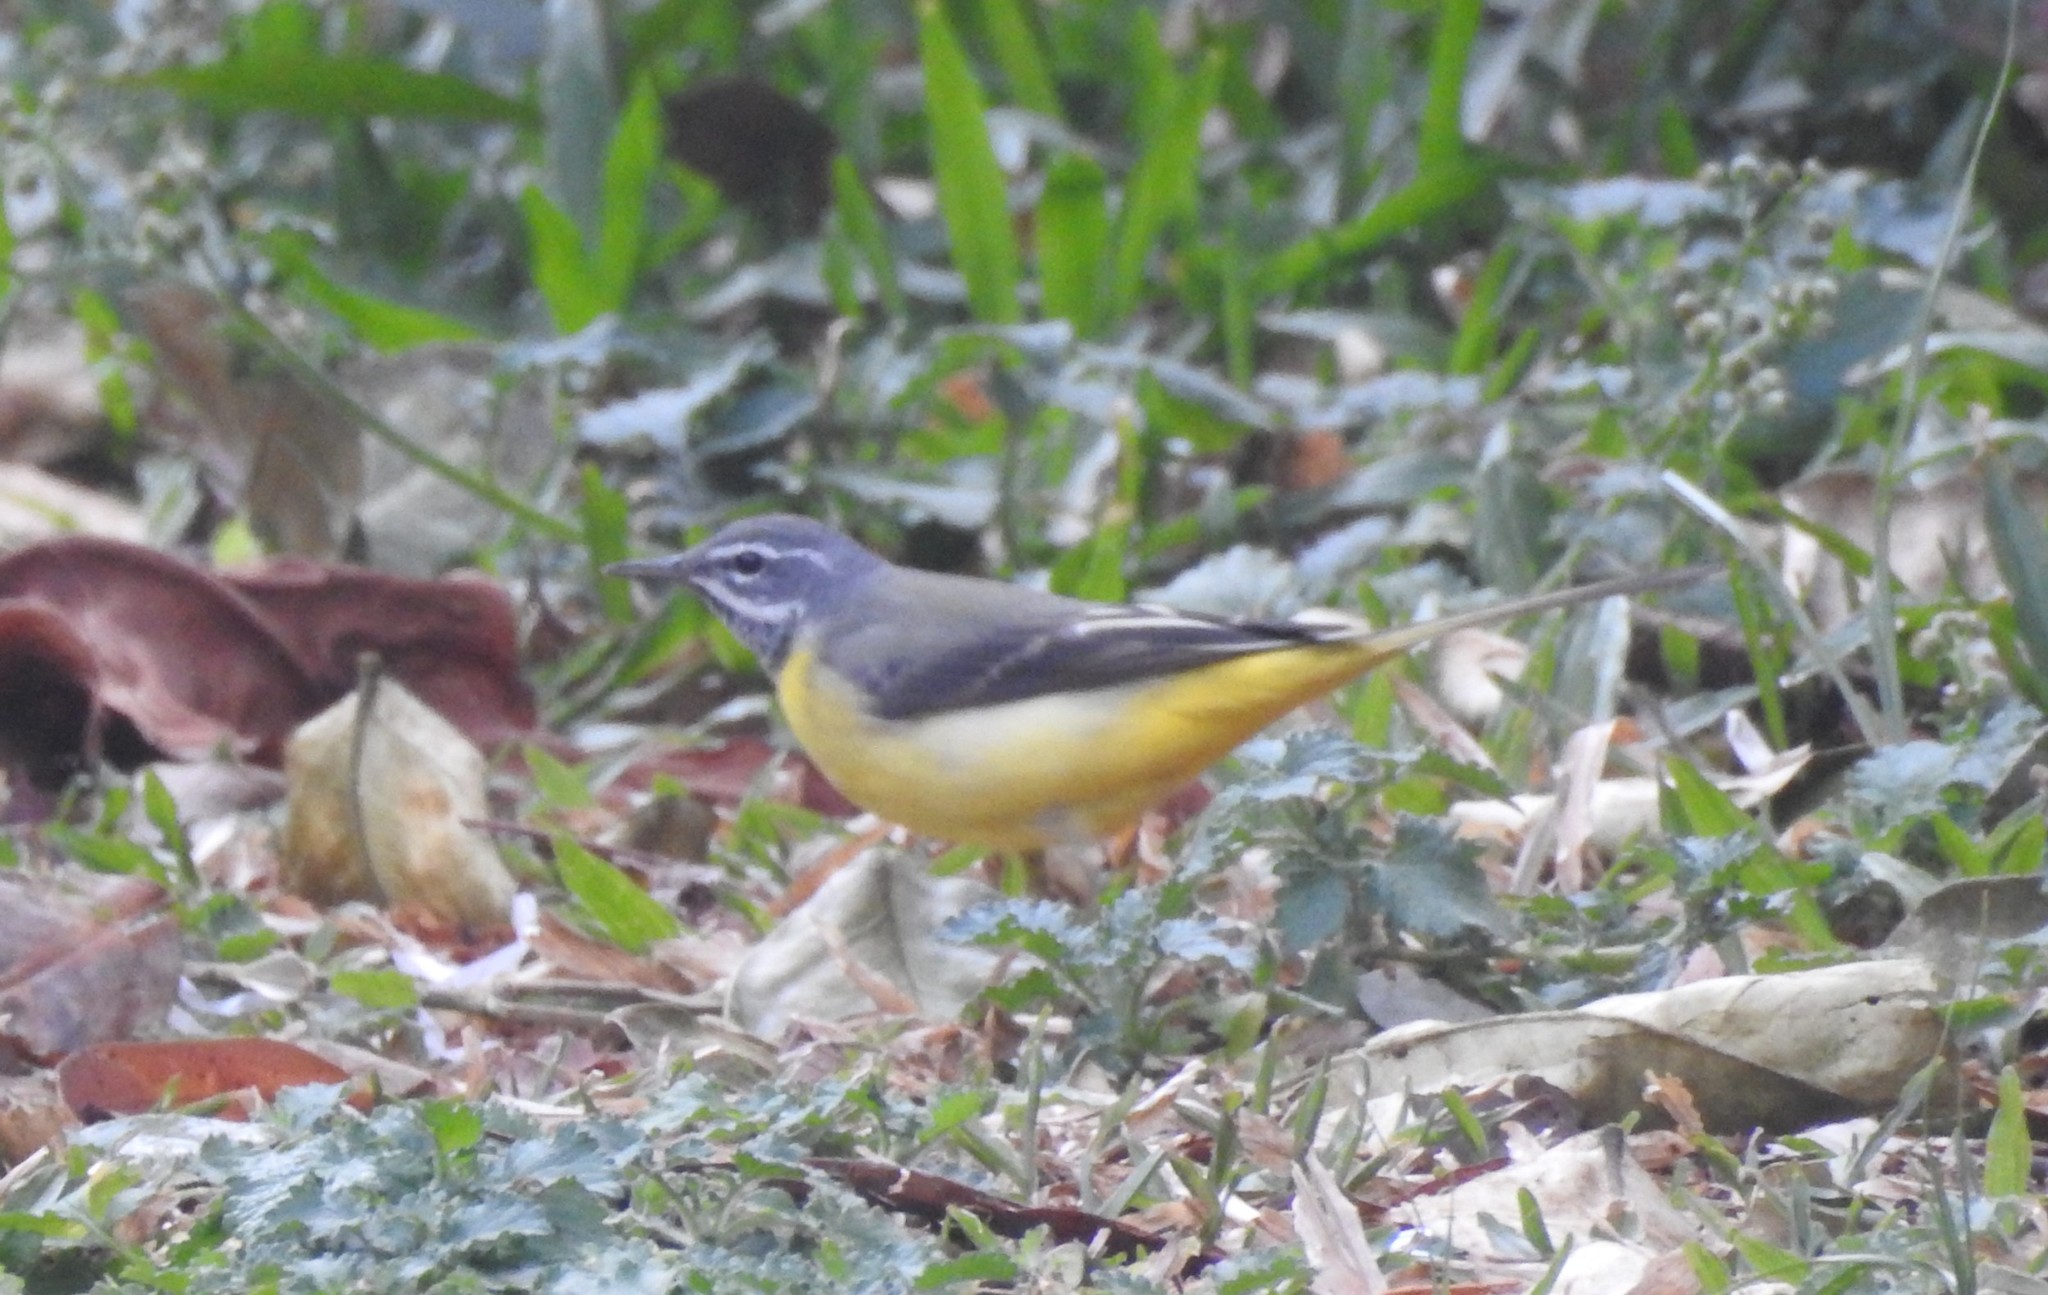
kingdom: Animalia
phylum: Chordata
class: Aves
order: Passeriformes
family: Motacillidae
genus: Motacilla
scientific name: Motacilla cinerea
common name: Grey wagtail
